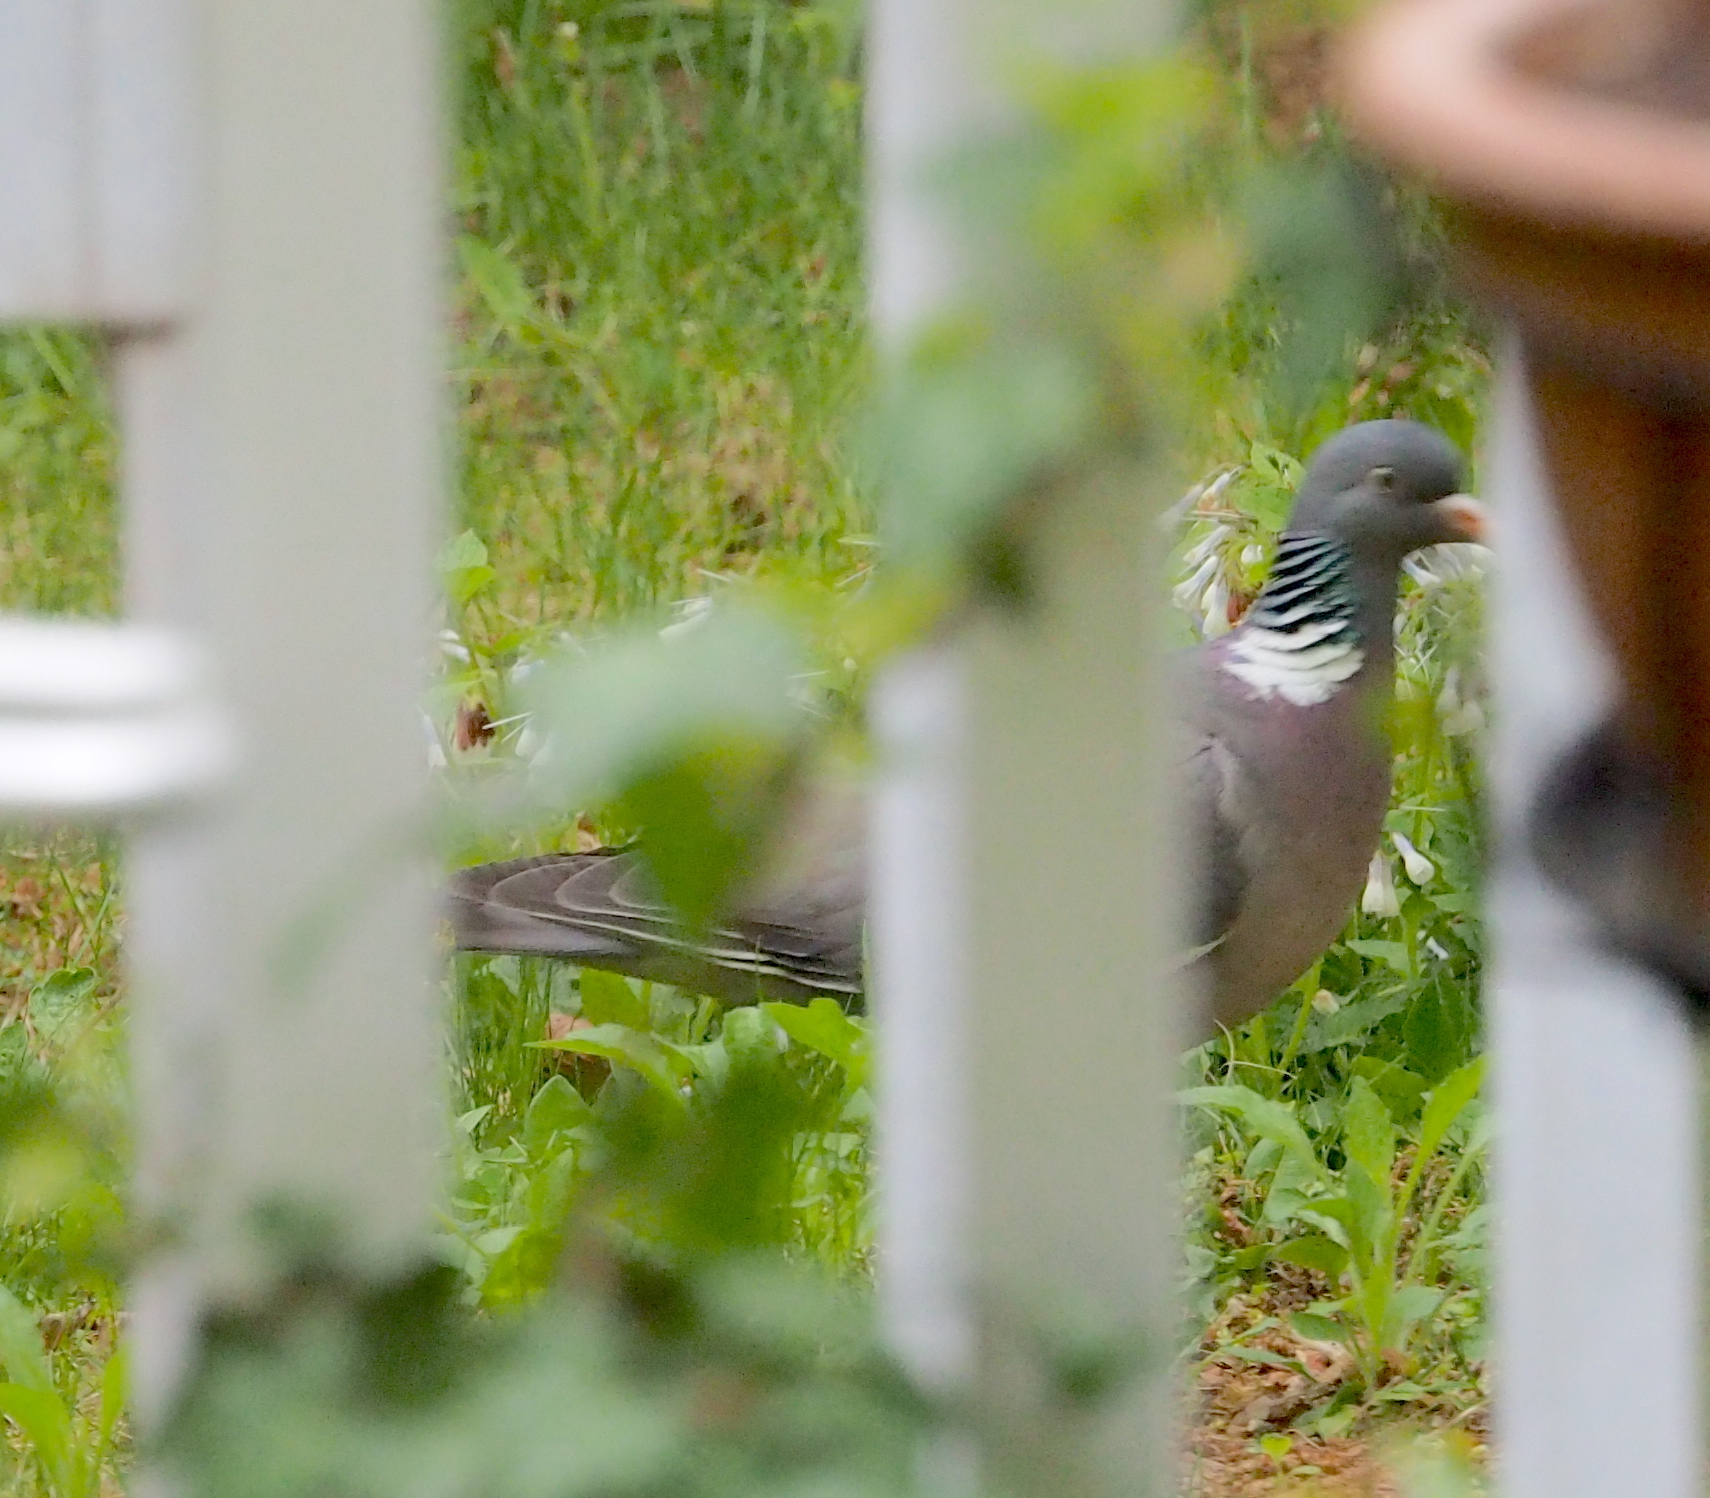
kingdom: Animalia
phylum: Chordata
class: Aves
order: Columbiformes
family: Columbidae
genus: Columba
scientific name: Columba palumbus
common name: Common wood pigeon
